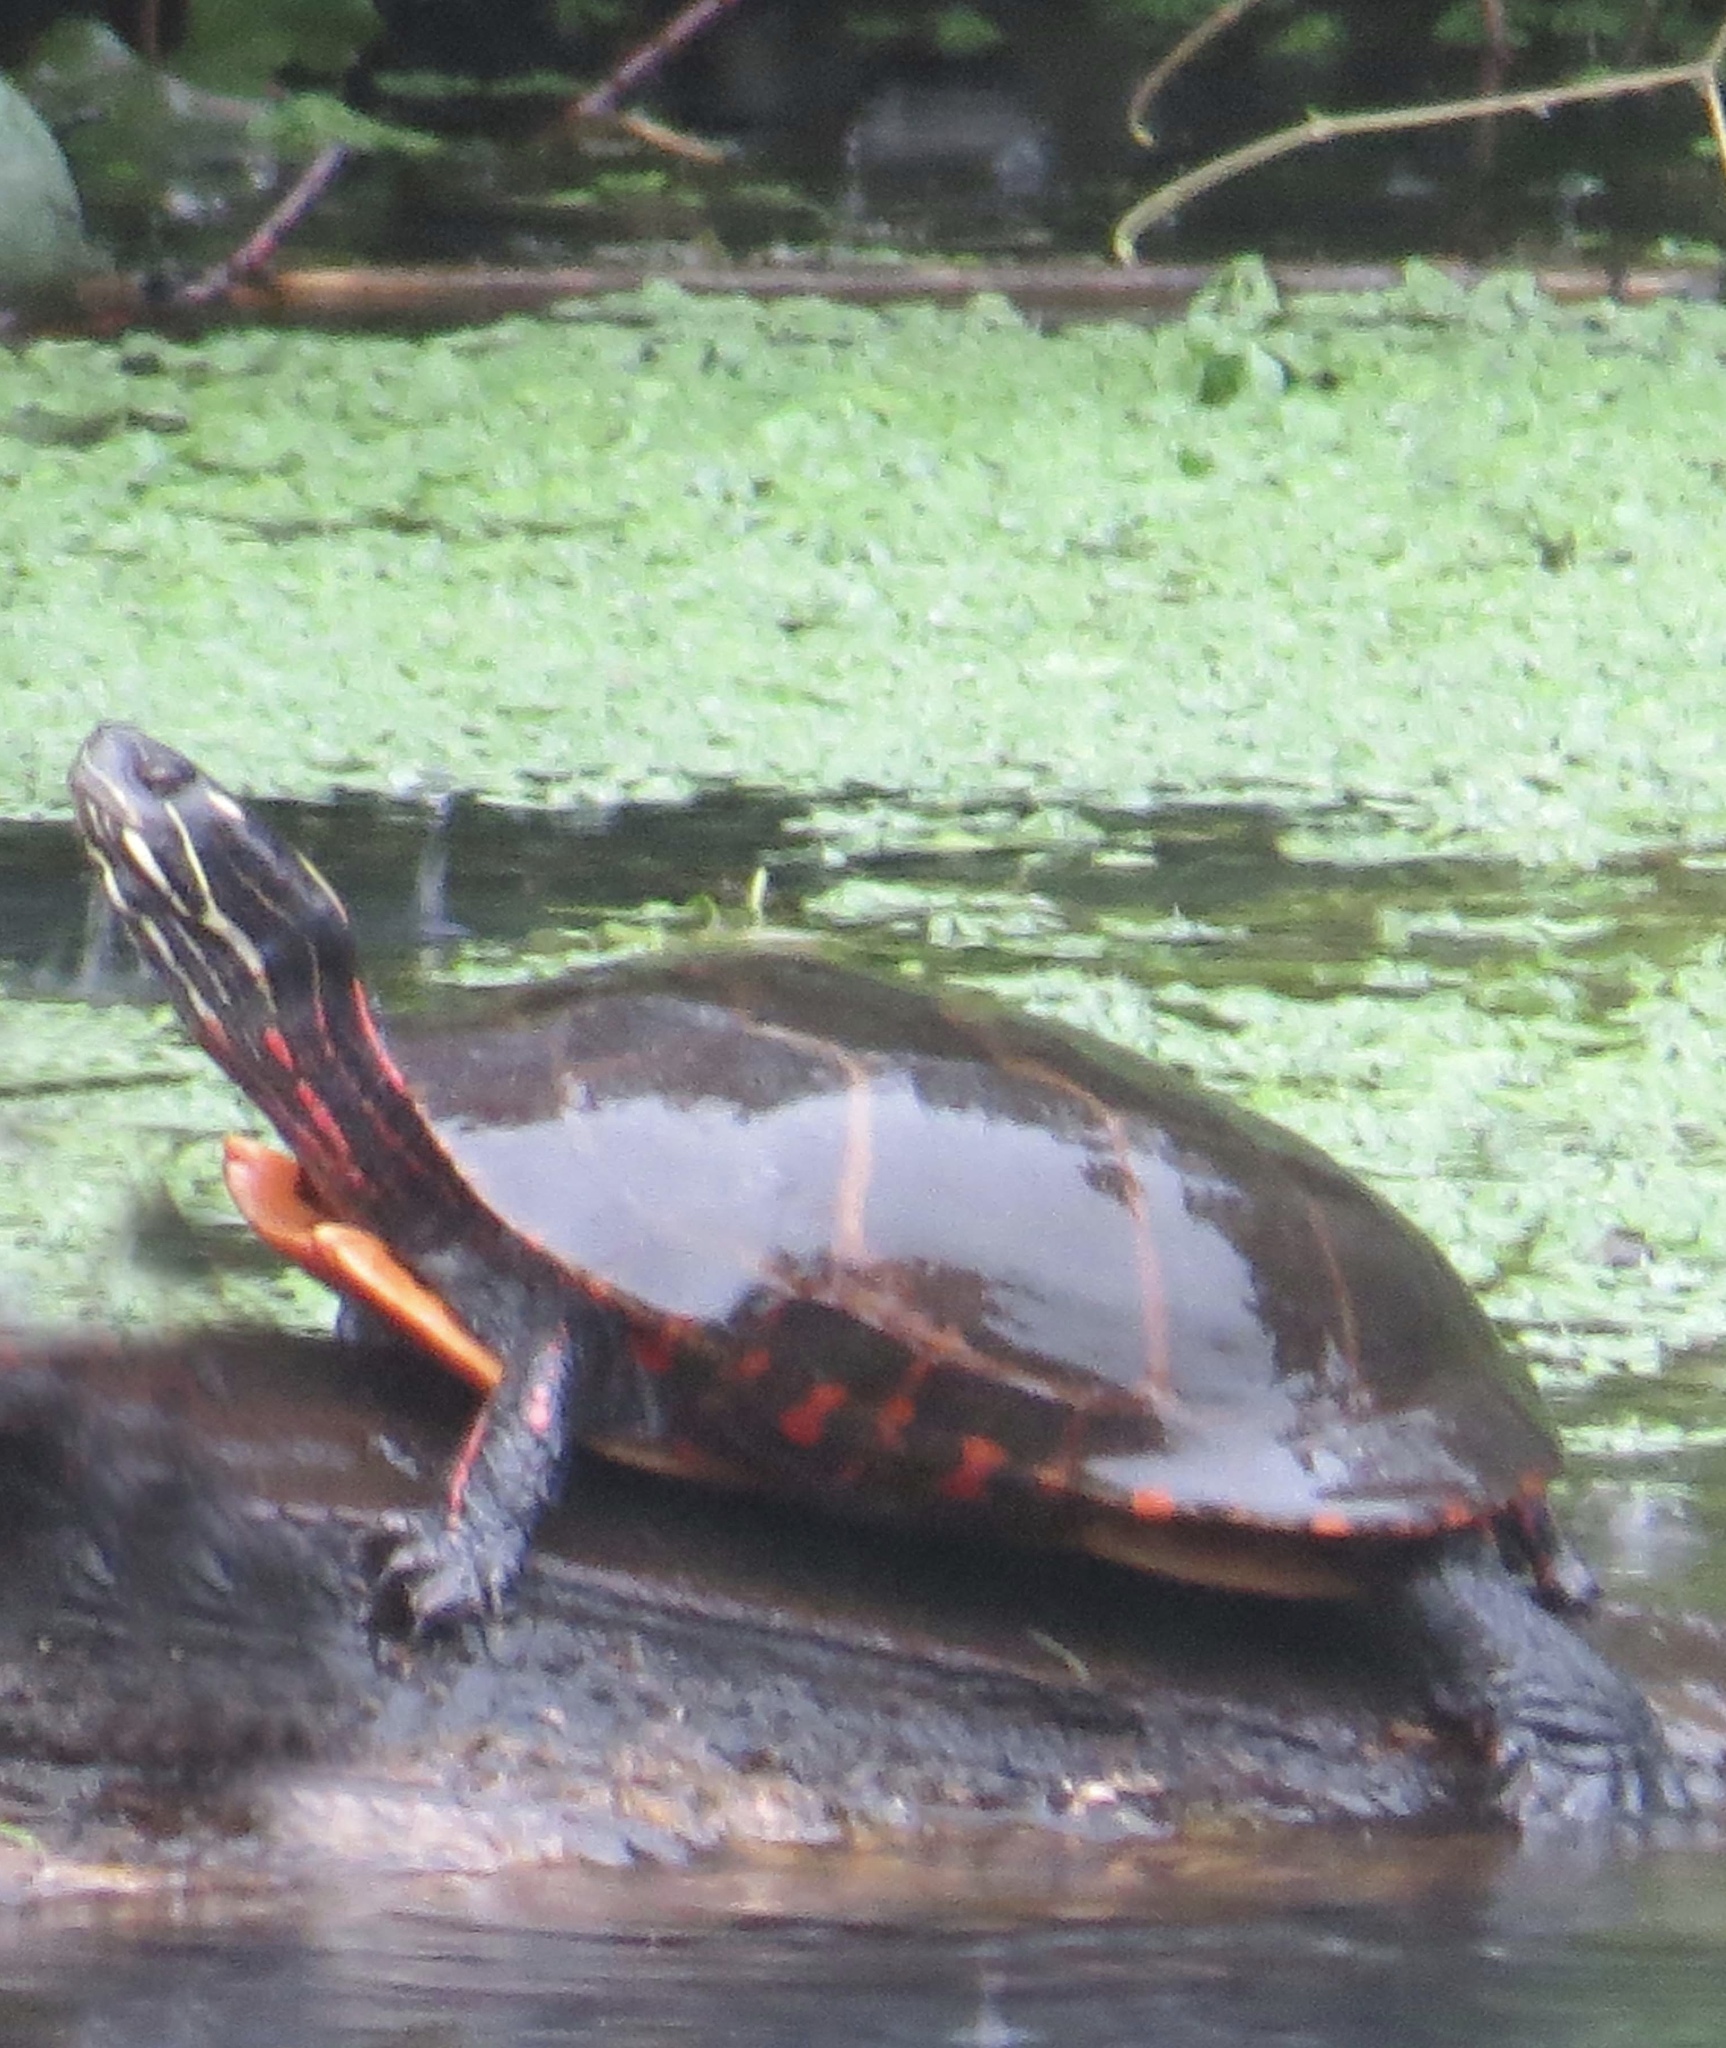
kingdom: Animalia
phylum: Chordata
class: Testudines
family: Emydidae
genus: Chrysemys
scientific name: Chrysemys picta
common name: Painted turtle
